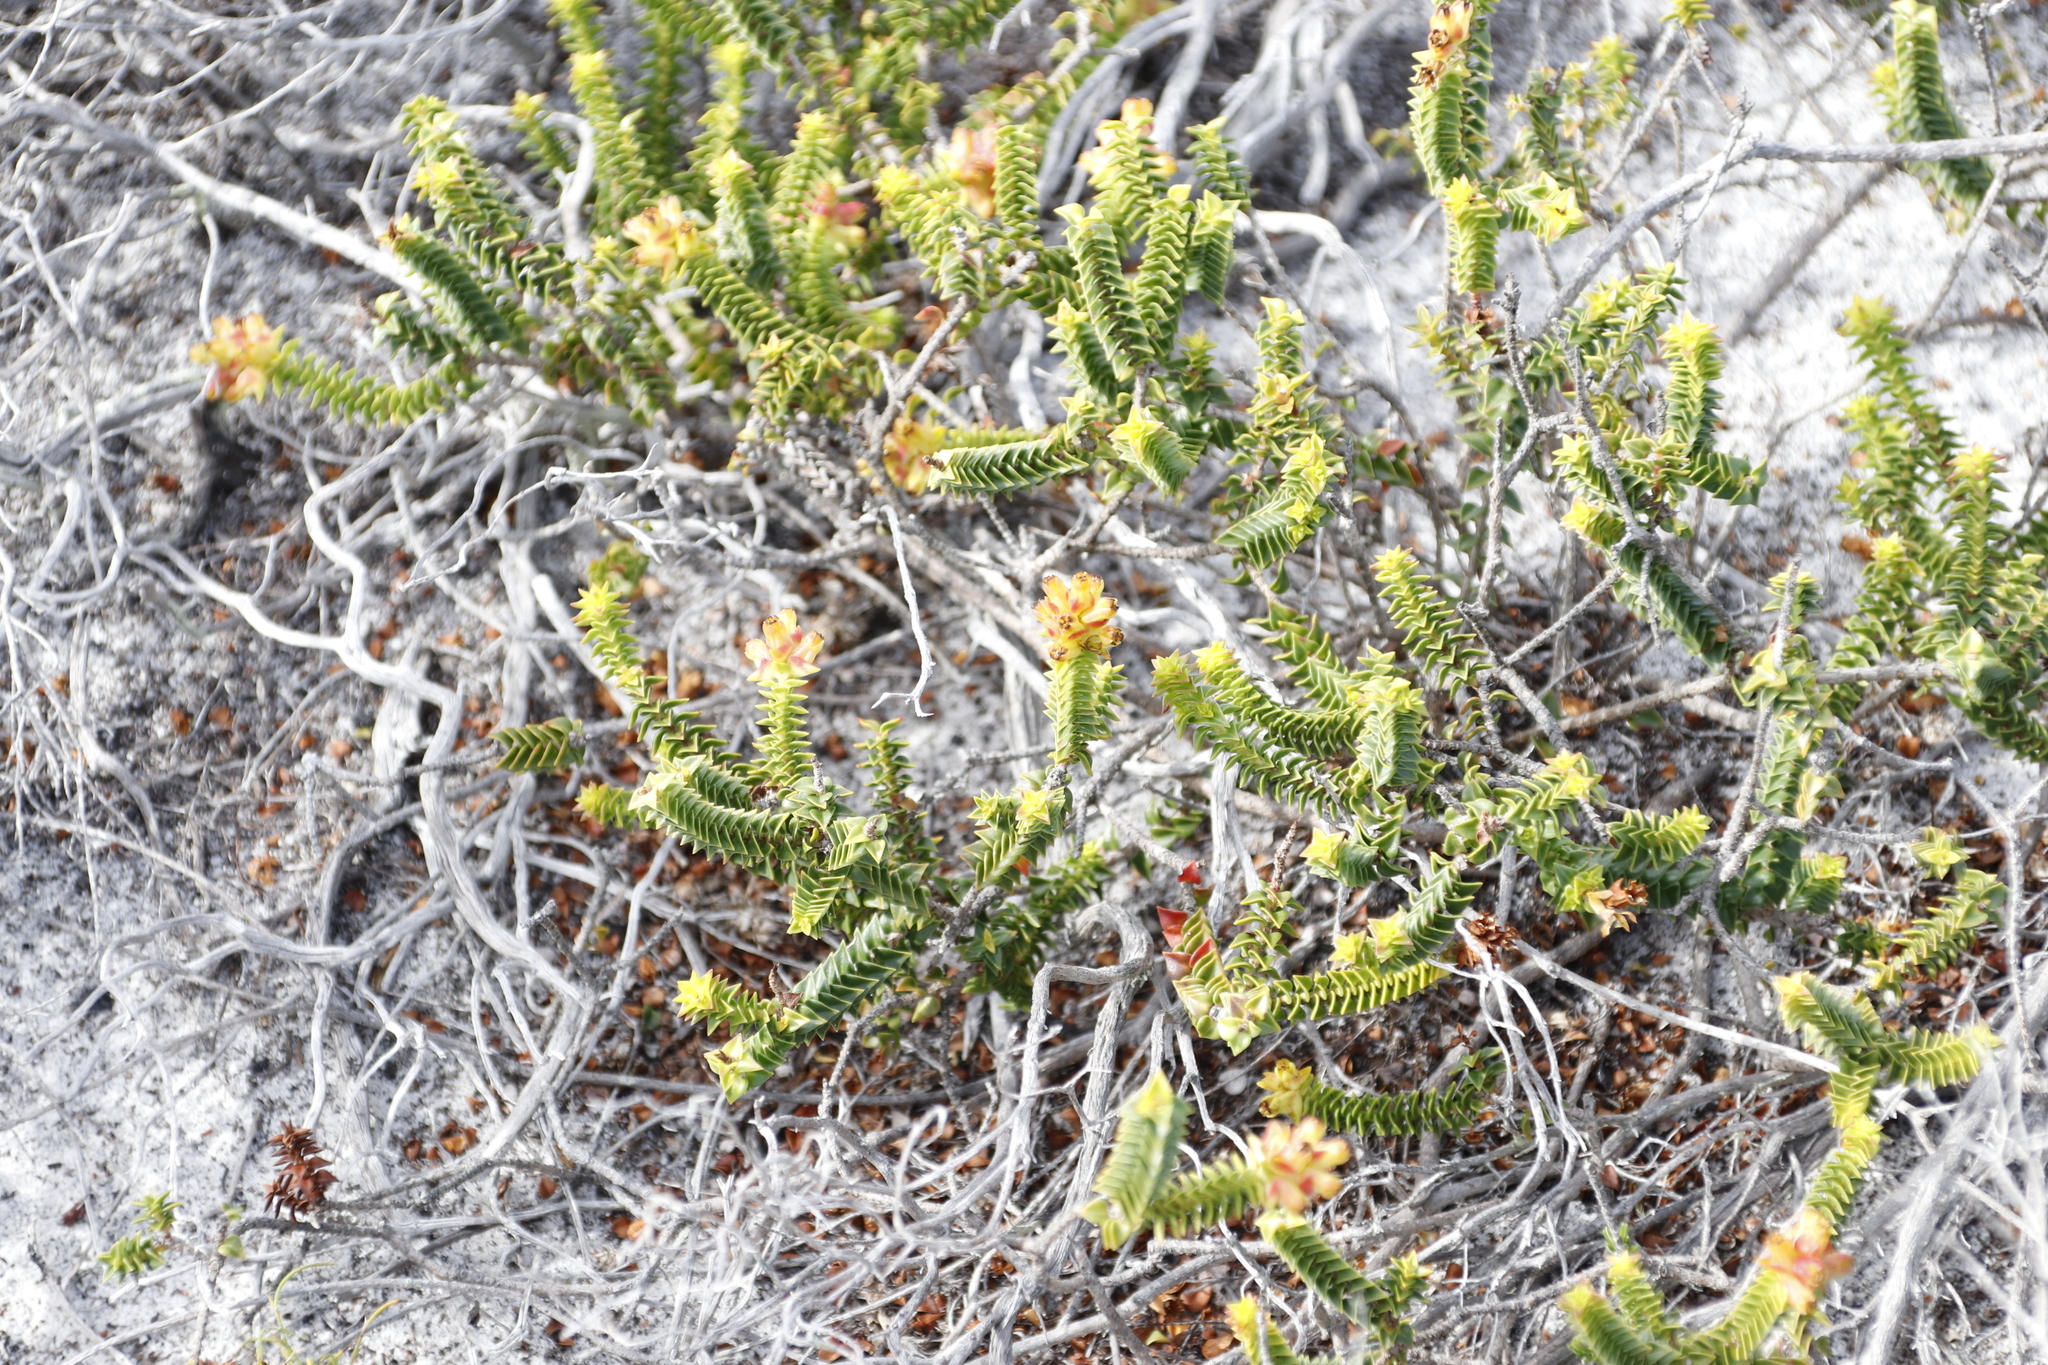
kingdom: Plantae
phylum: Tracheophyta
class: Magnoliopsida
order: Myrtales
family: Penaeaceae
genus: Penaea
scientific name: Penaea mucronata
